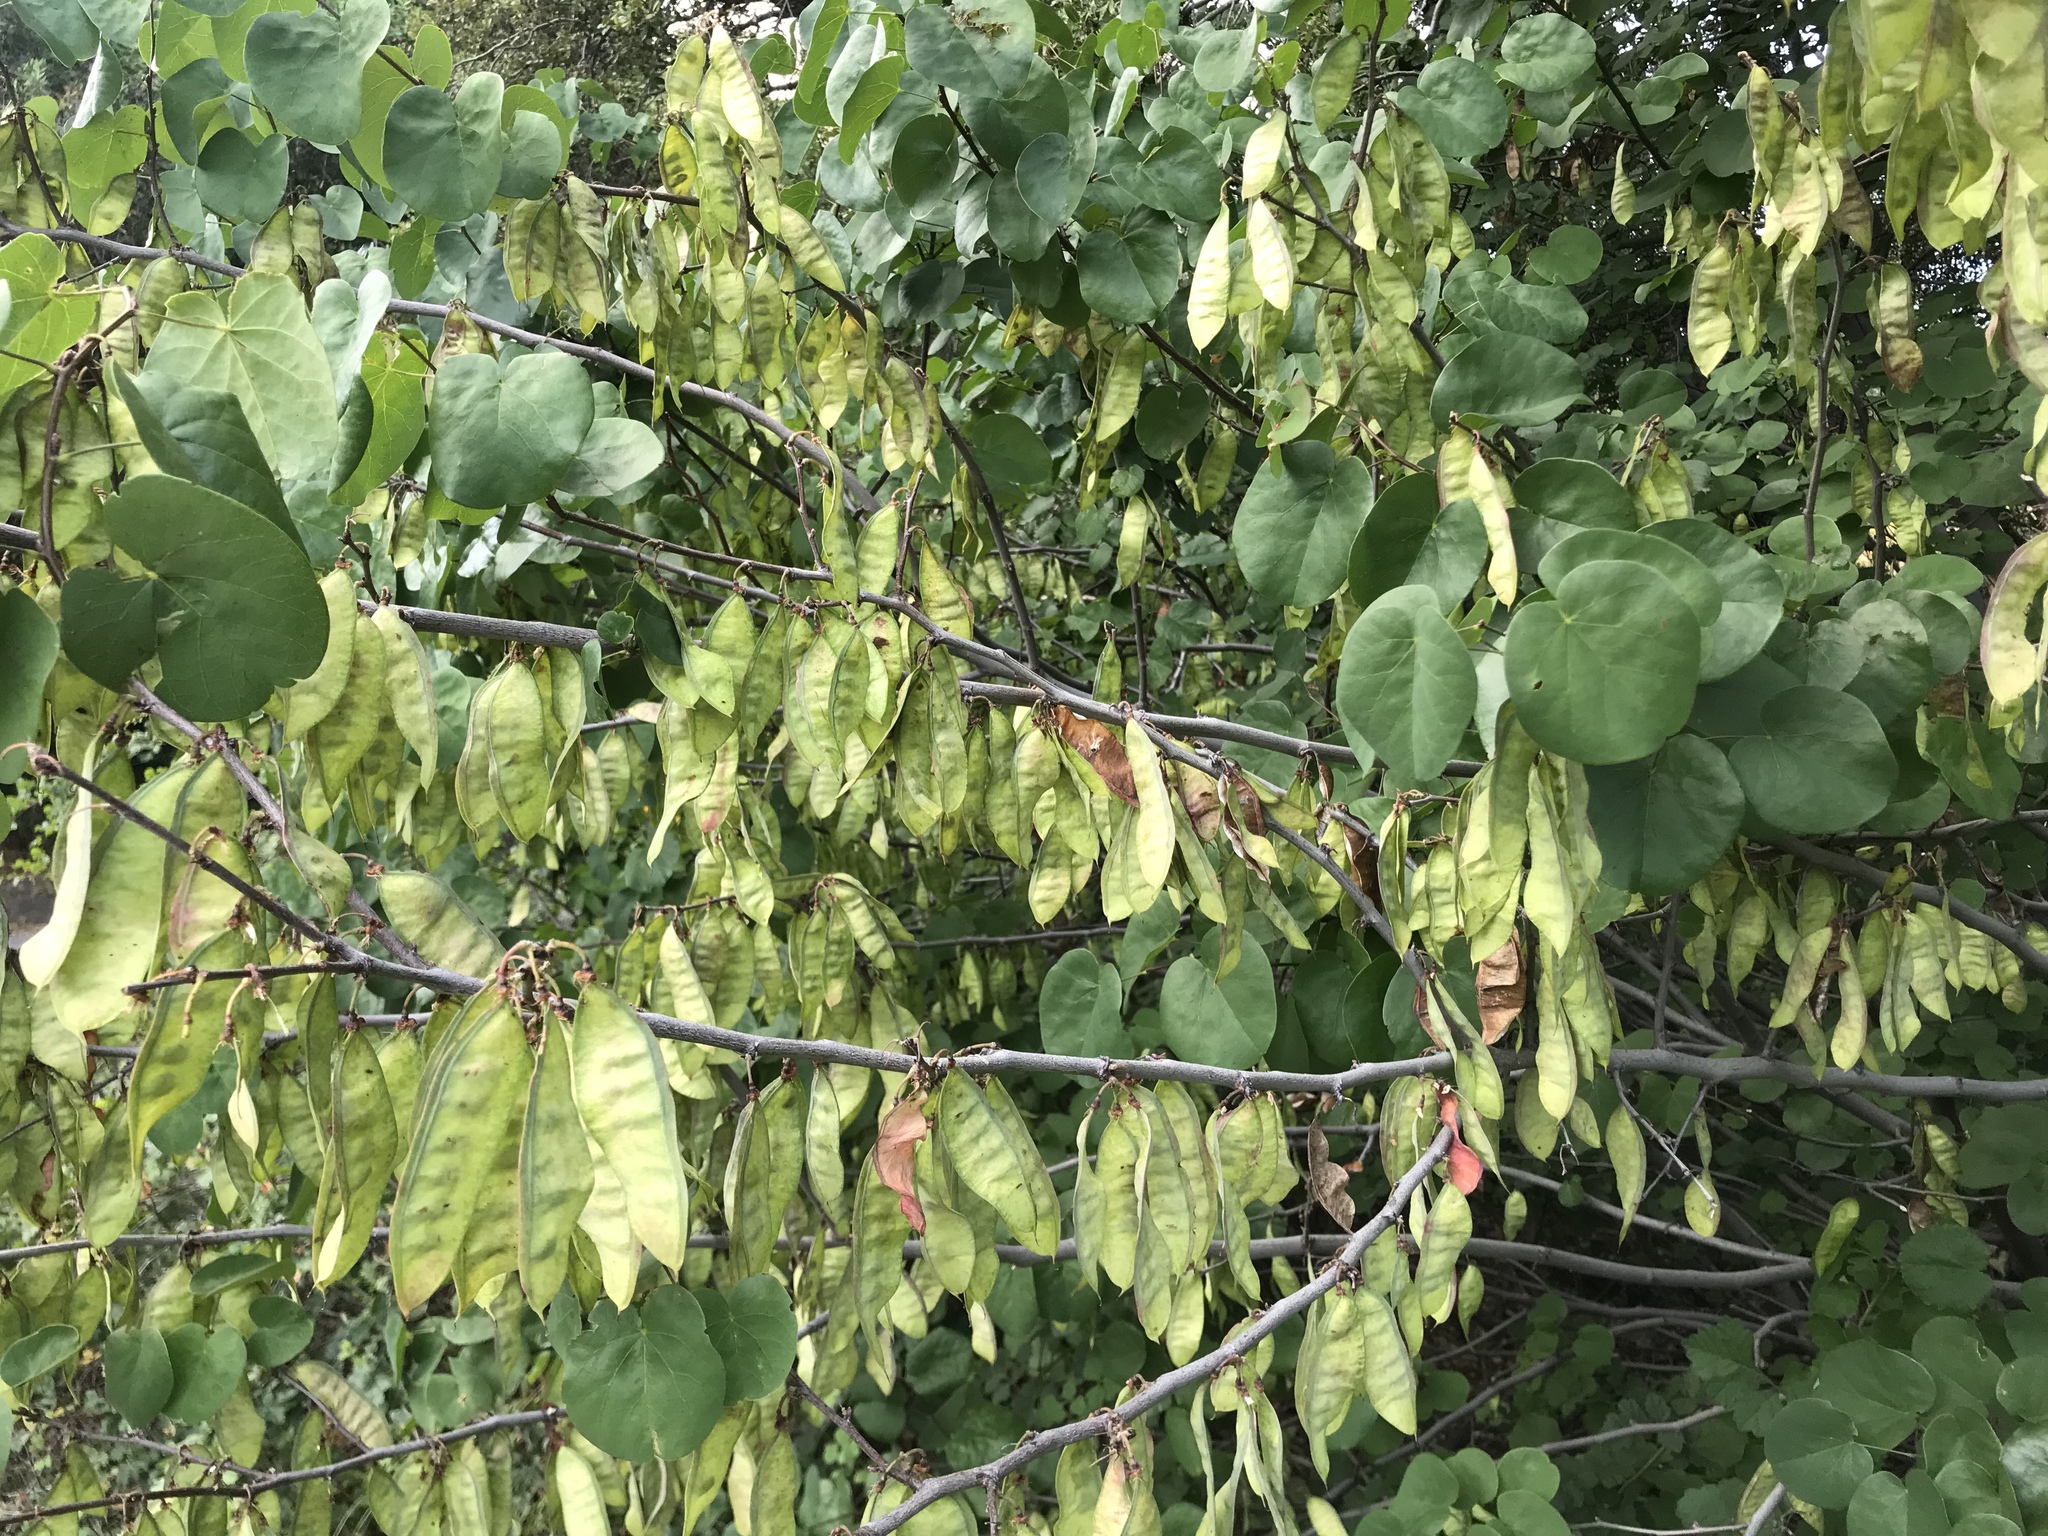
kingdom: Plantae
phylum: Tracheophyta
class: Magnoliopsida
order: Fabales
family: Fabaceae
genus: Cercis
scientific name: Cercis occidentalis
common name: California redbud
